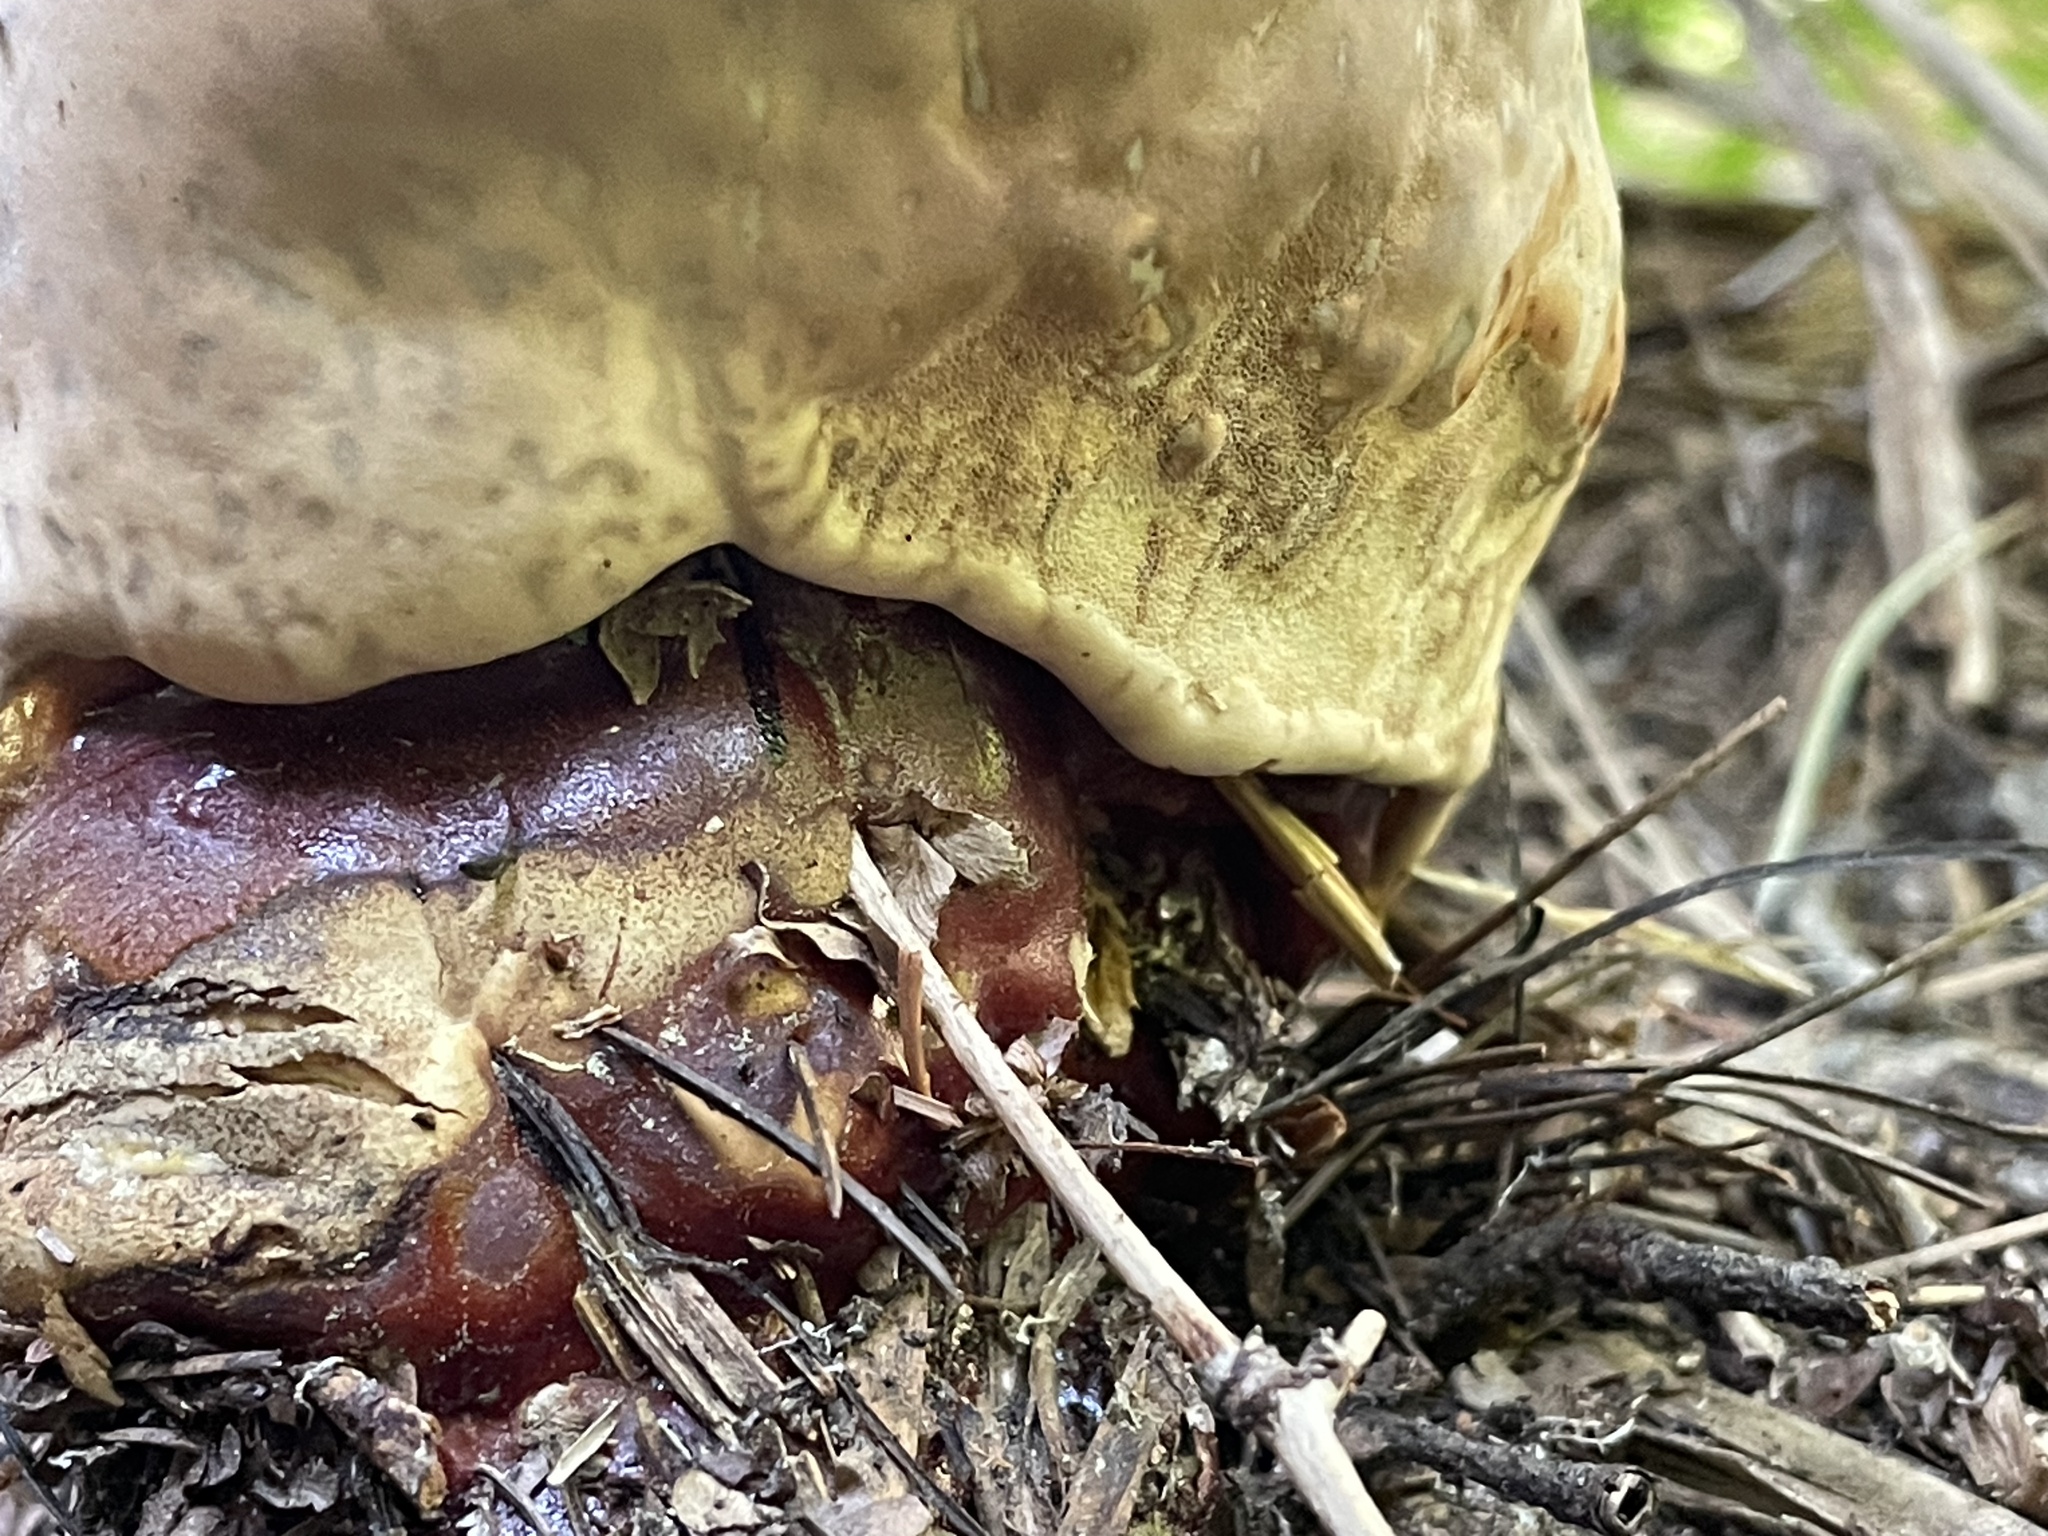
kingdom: Fungi
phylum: Basidiomycota
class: Agaricomycetes
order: Polyporales
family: Polyporaceae
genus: Ganoderma
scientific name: Ganoderma tsugae
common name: Hemlock varnish shelf
